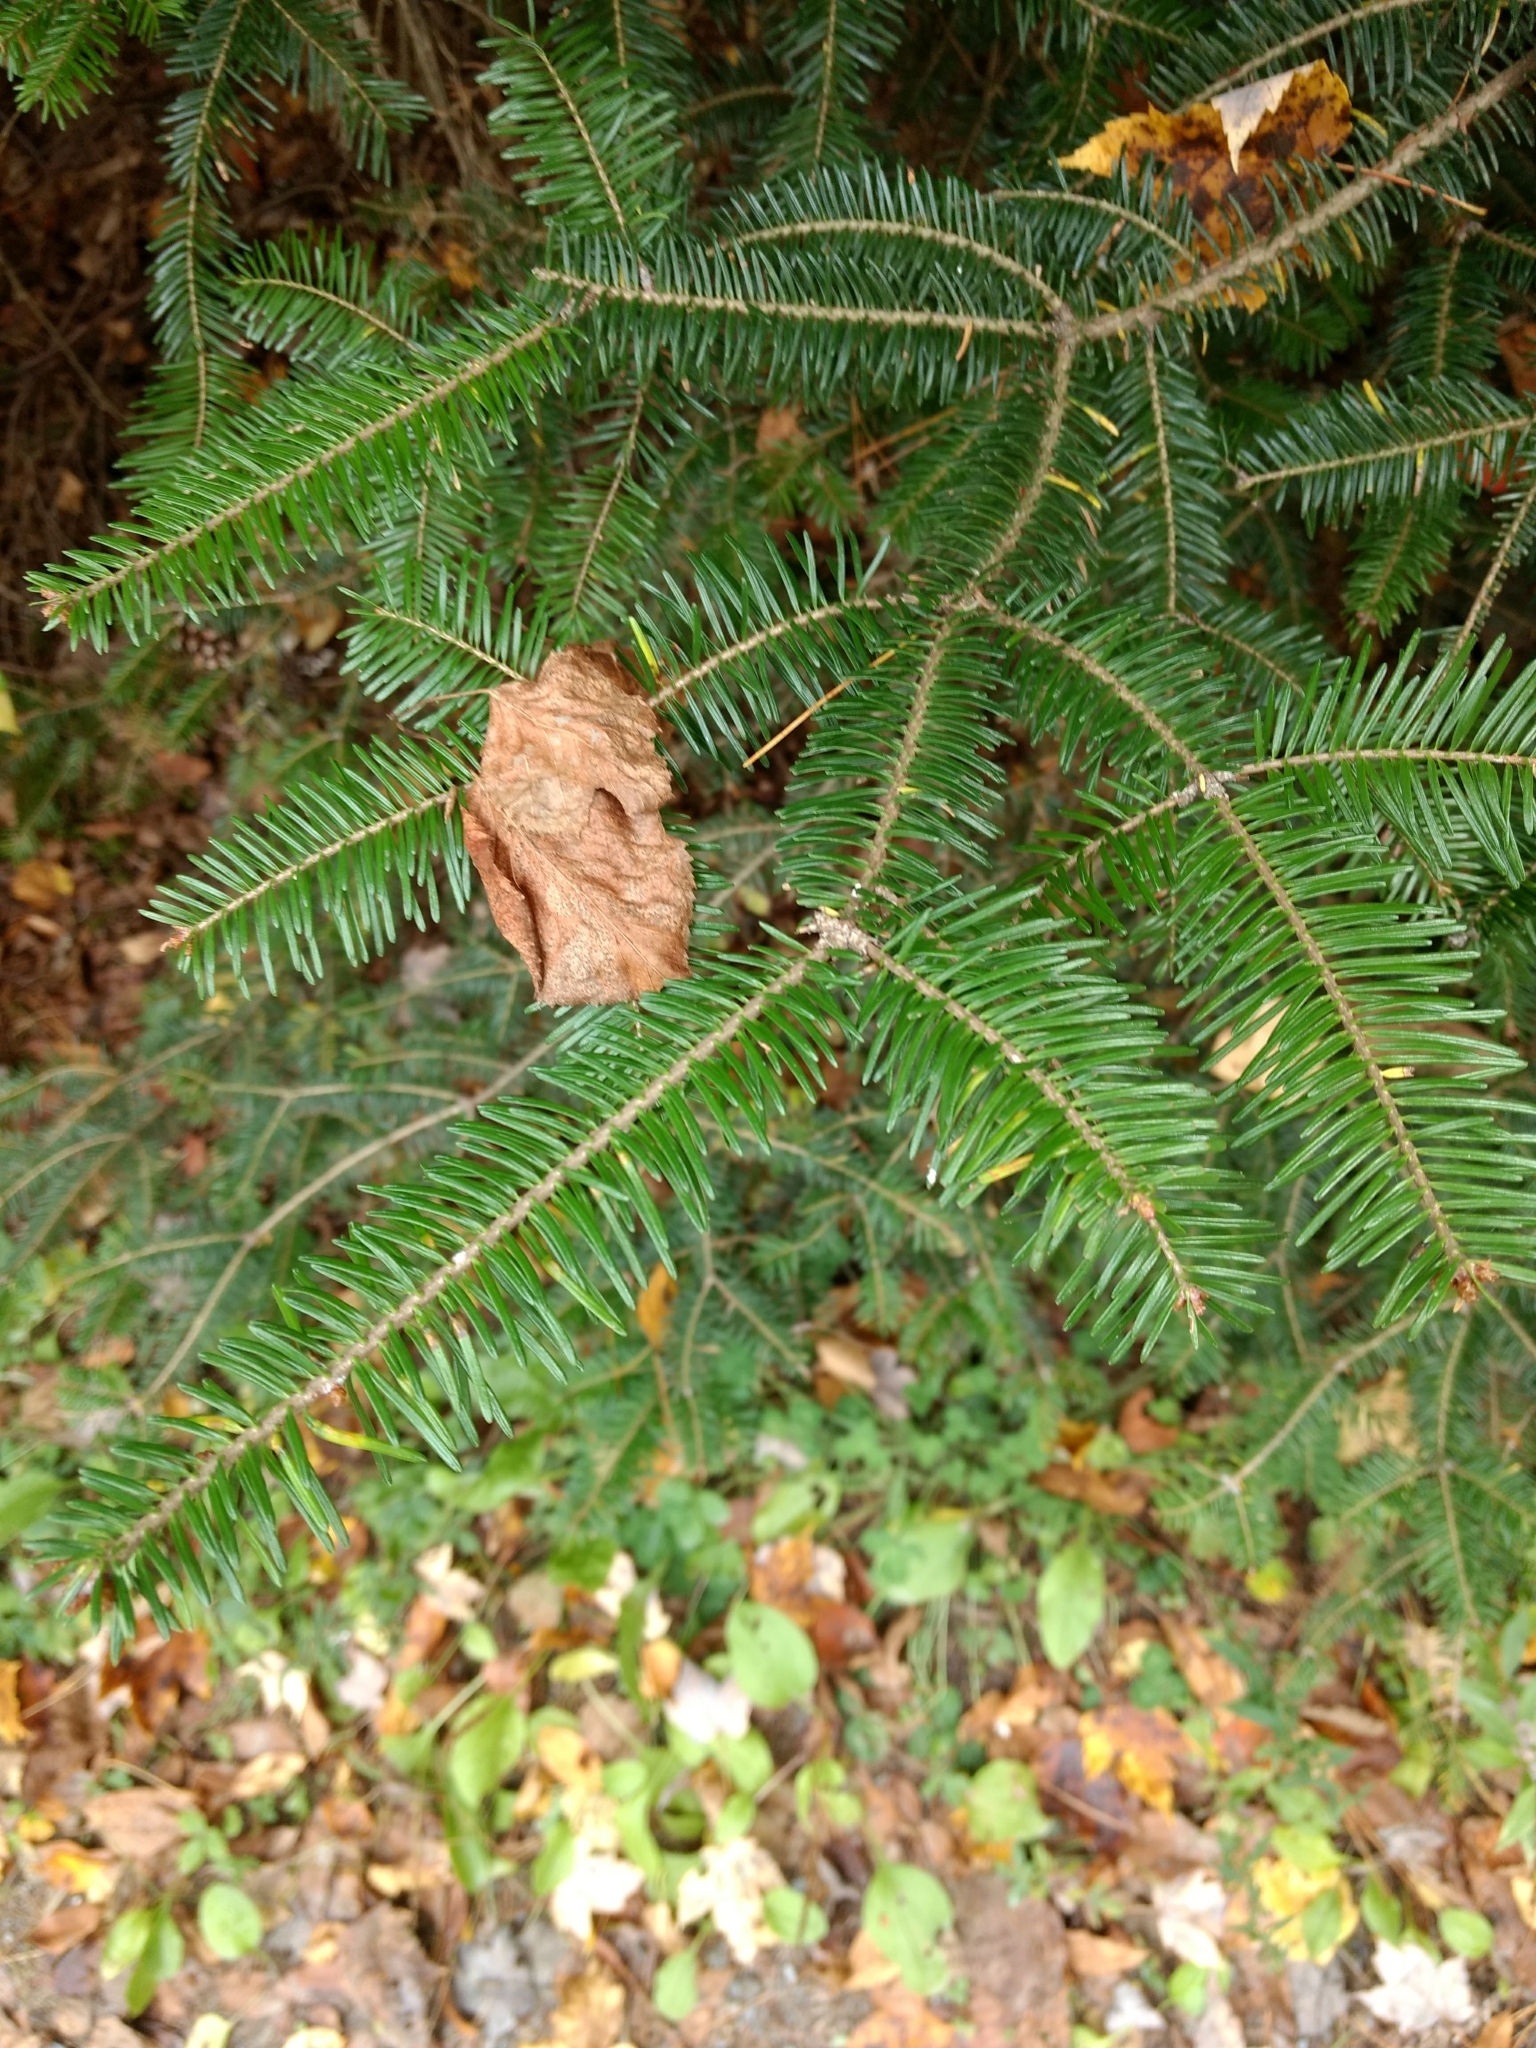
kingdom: Plantae
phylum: Tracheophyta
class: Pinopsida
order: Pinales
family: Pinaceae
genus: Abies
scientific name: Abies balsamea
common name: Balsam fir
